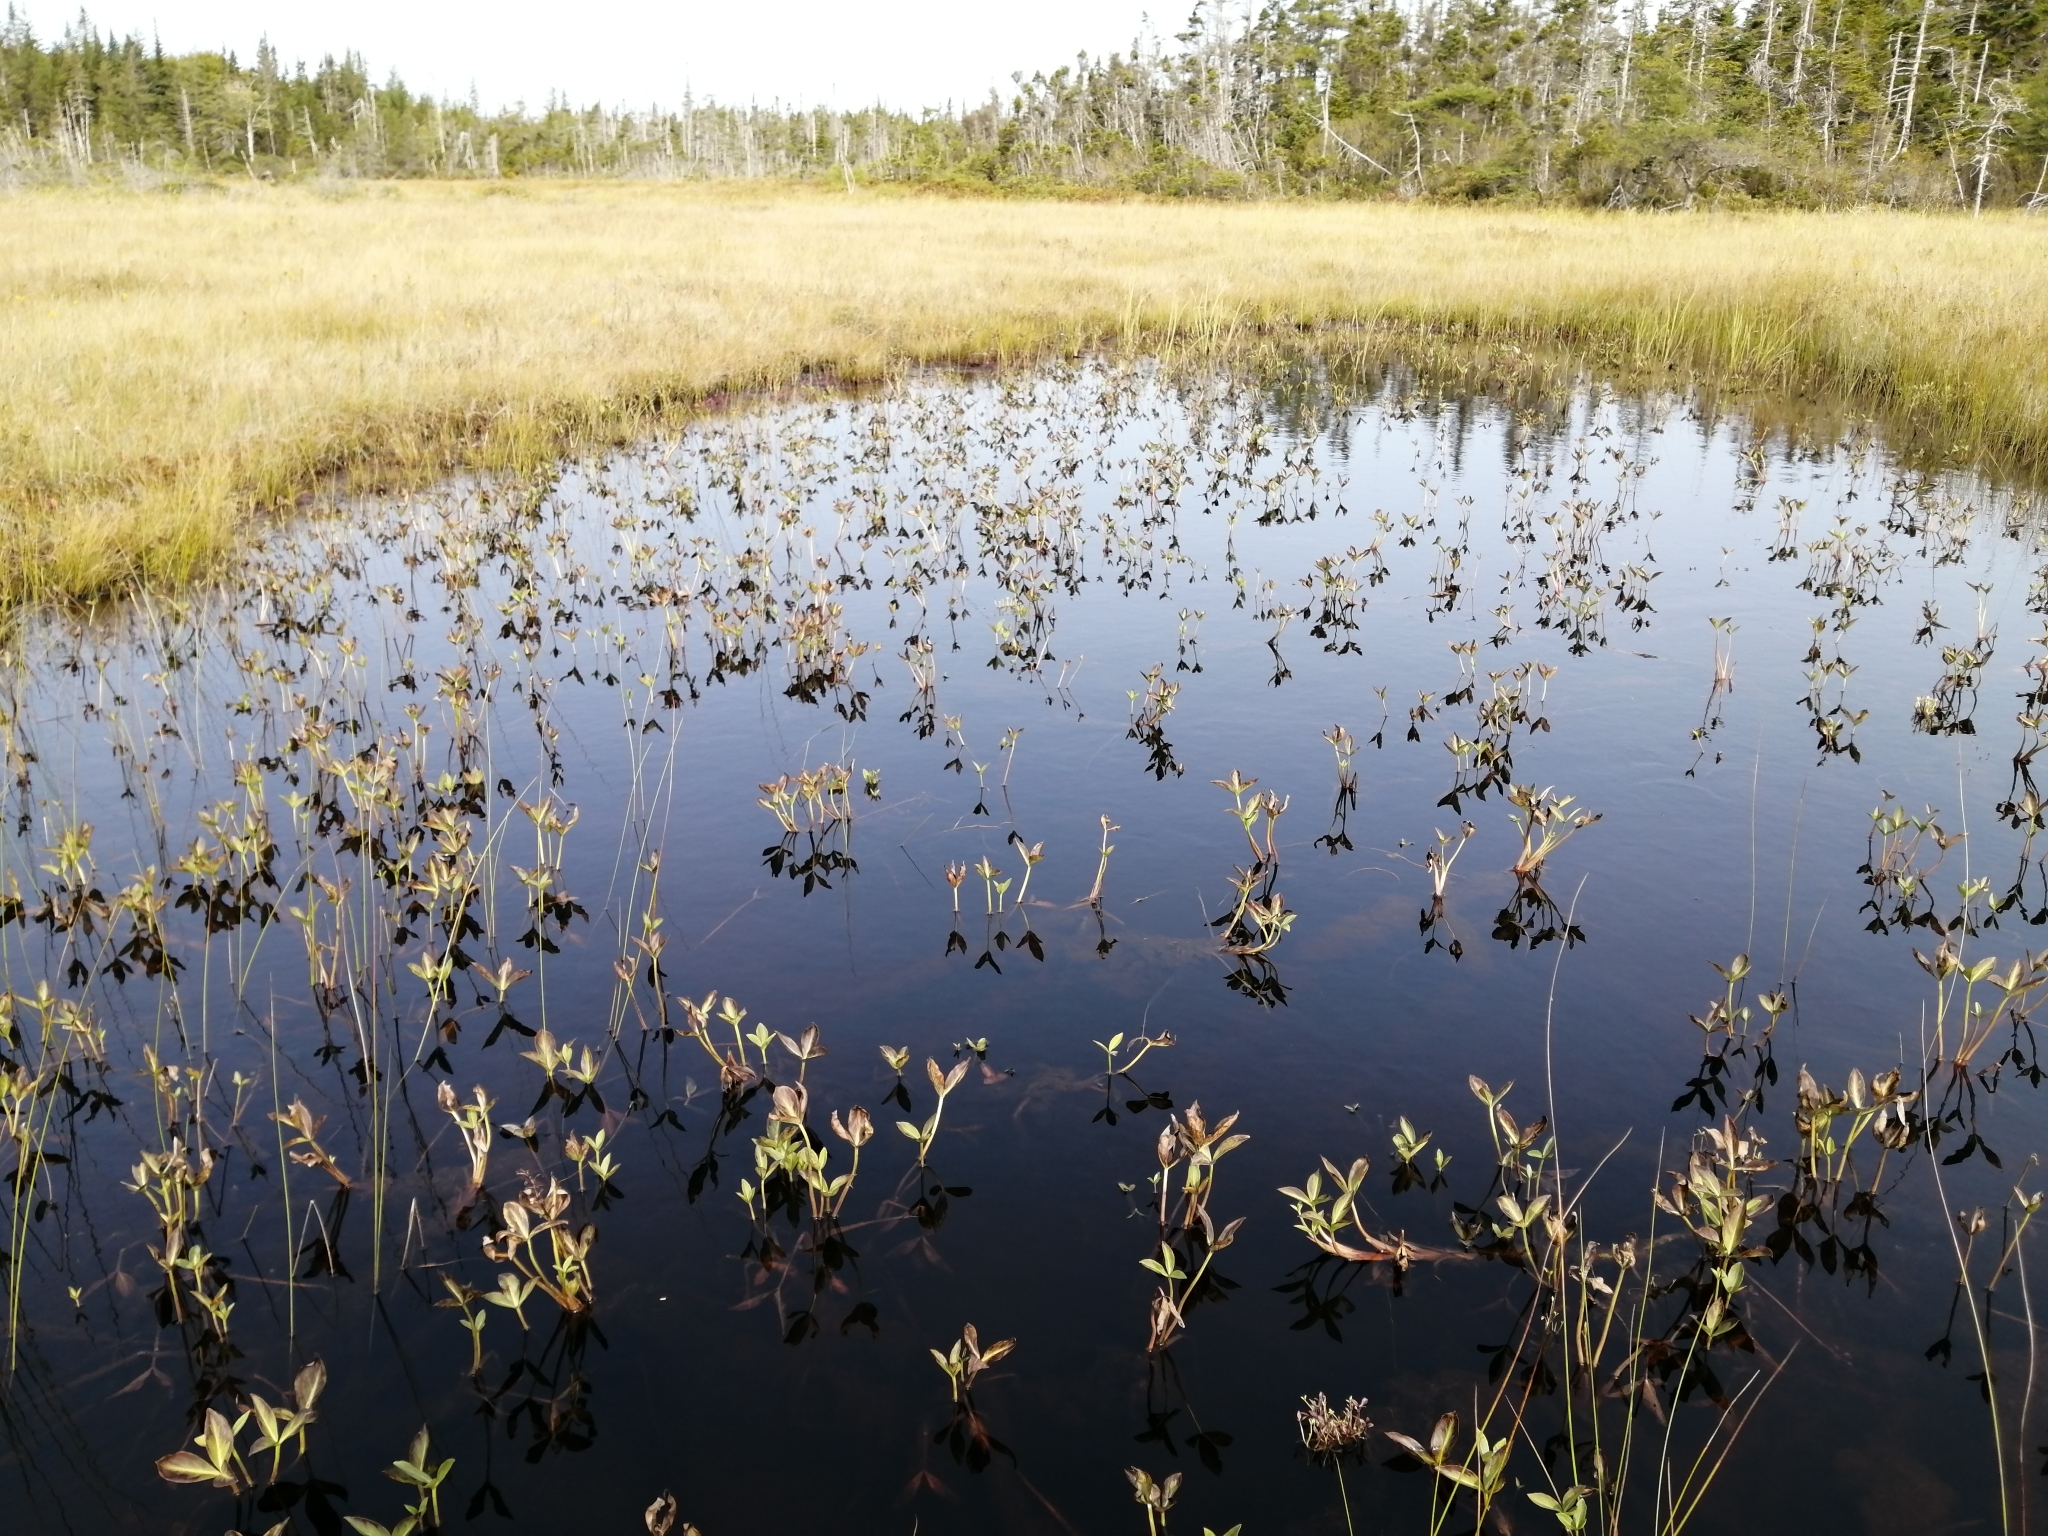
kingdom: Plantae
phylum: Tracheophyta
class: Magnoliopsida
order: Asterales
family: Menyanthaceae
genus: Menyanthes
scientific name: Menyanthes trifoliata
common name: Bogbean
